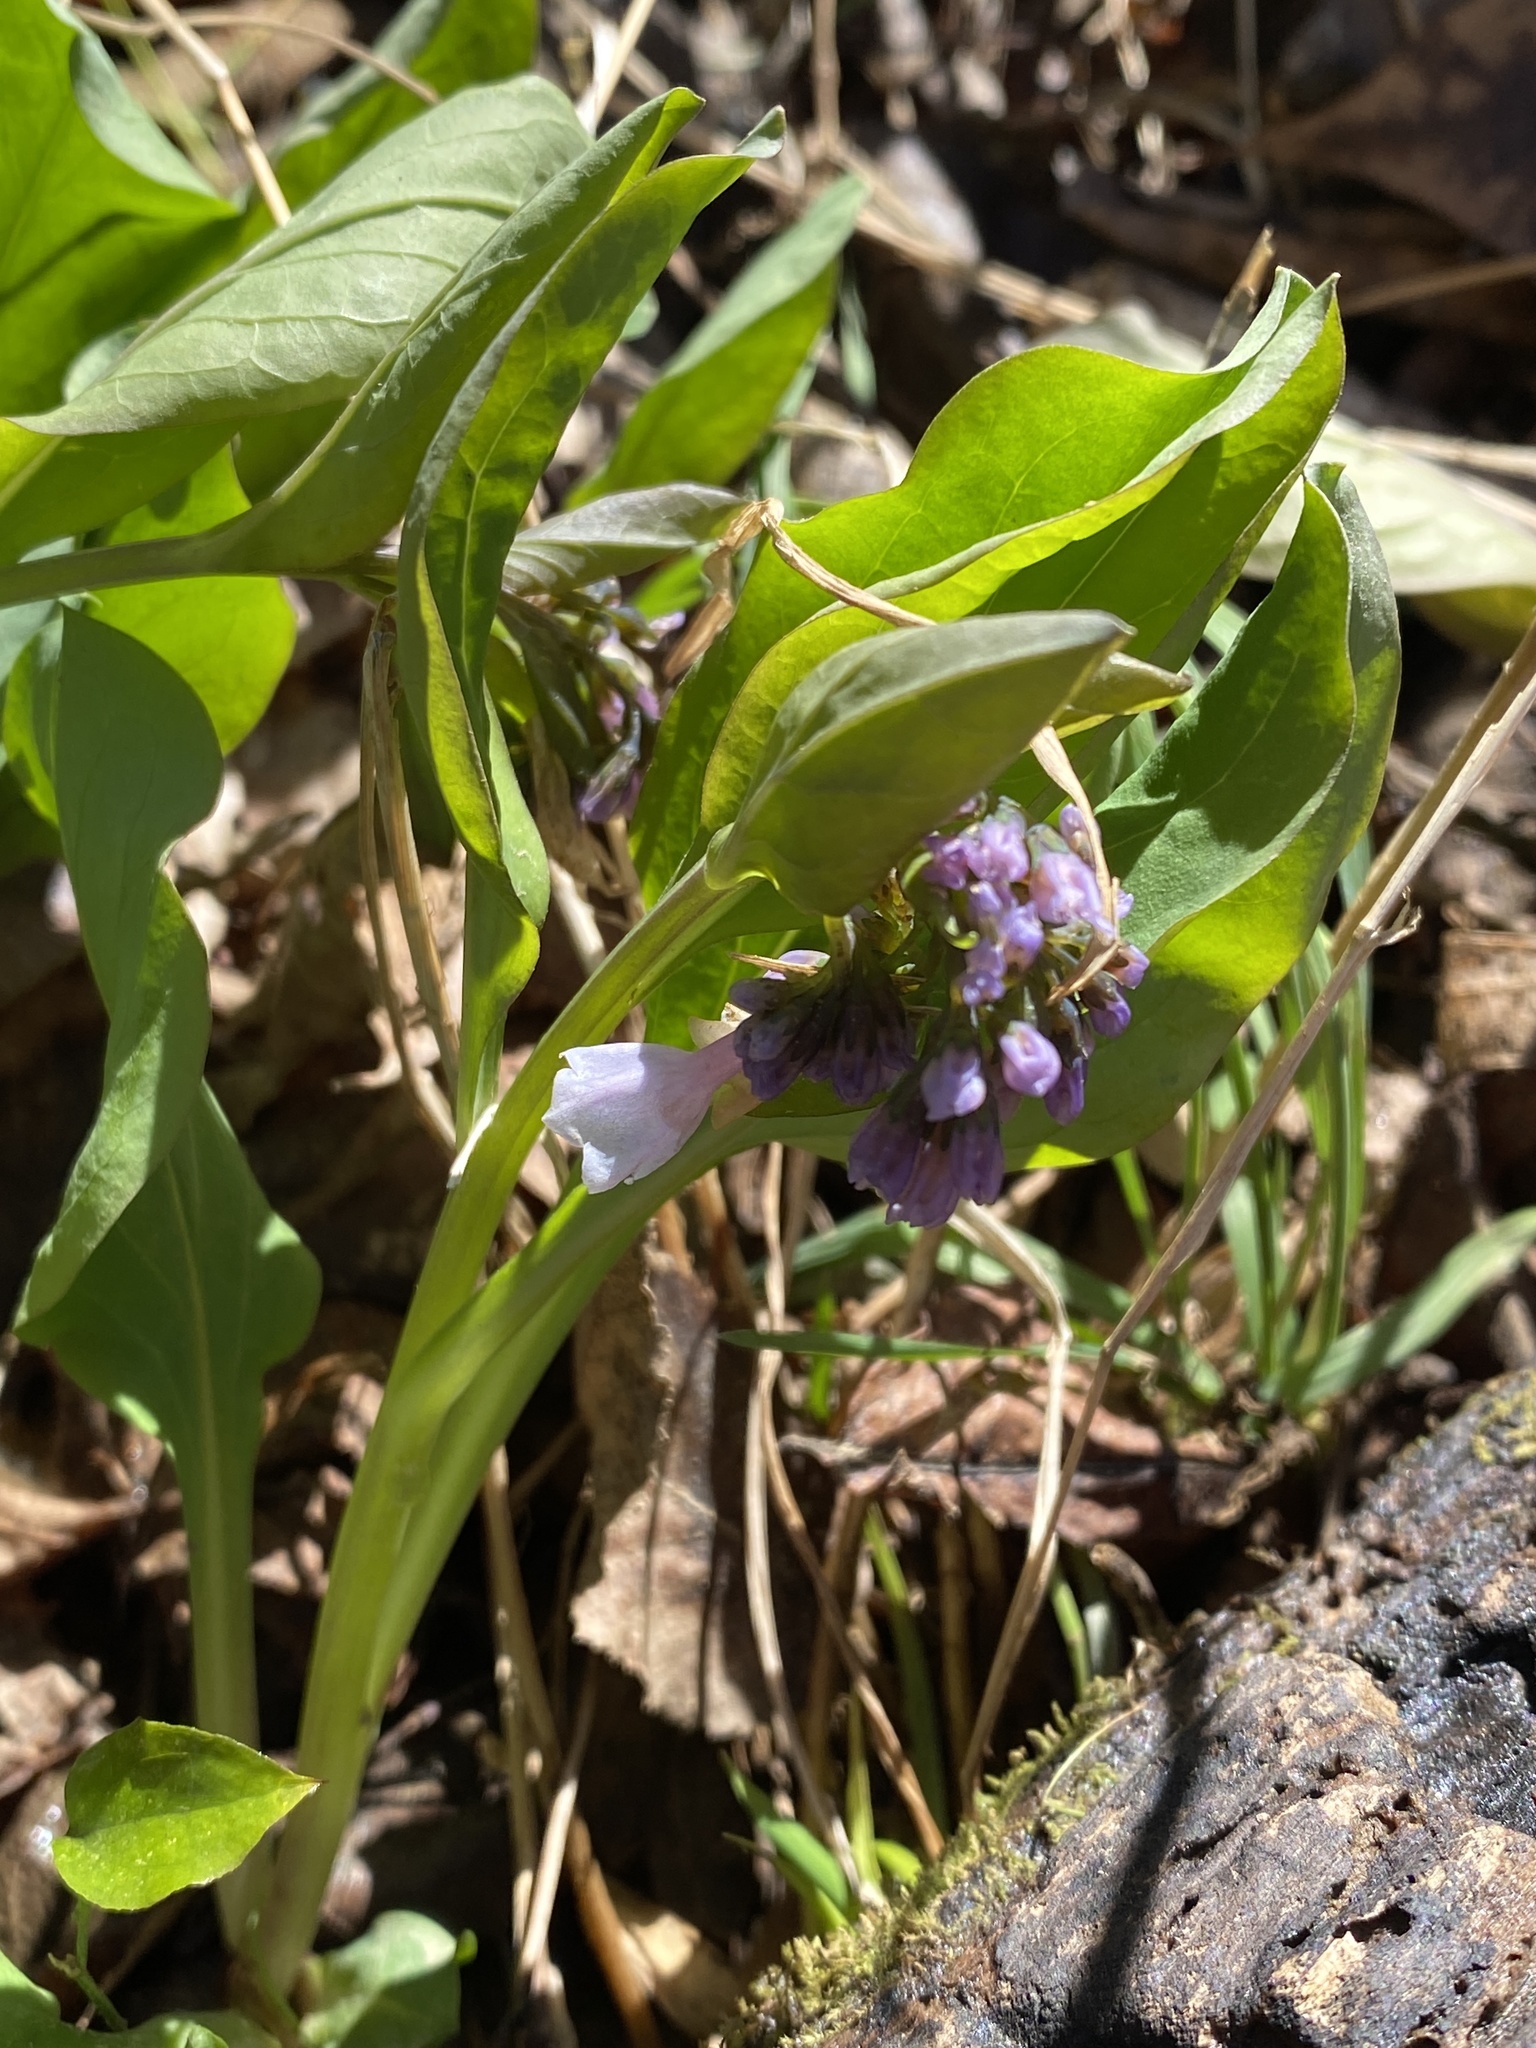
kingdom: Plantae
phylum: Tracheophyta
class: Magnoliopsida
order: Boraginales
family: Boraginaceae
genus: Mertensia
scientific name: Mertensia virginica
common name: Virginia bluebells
